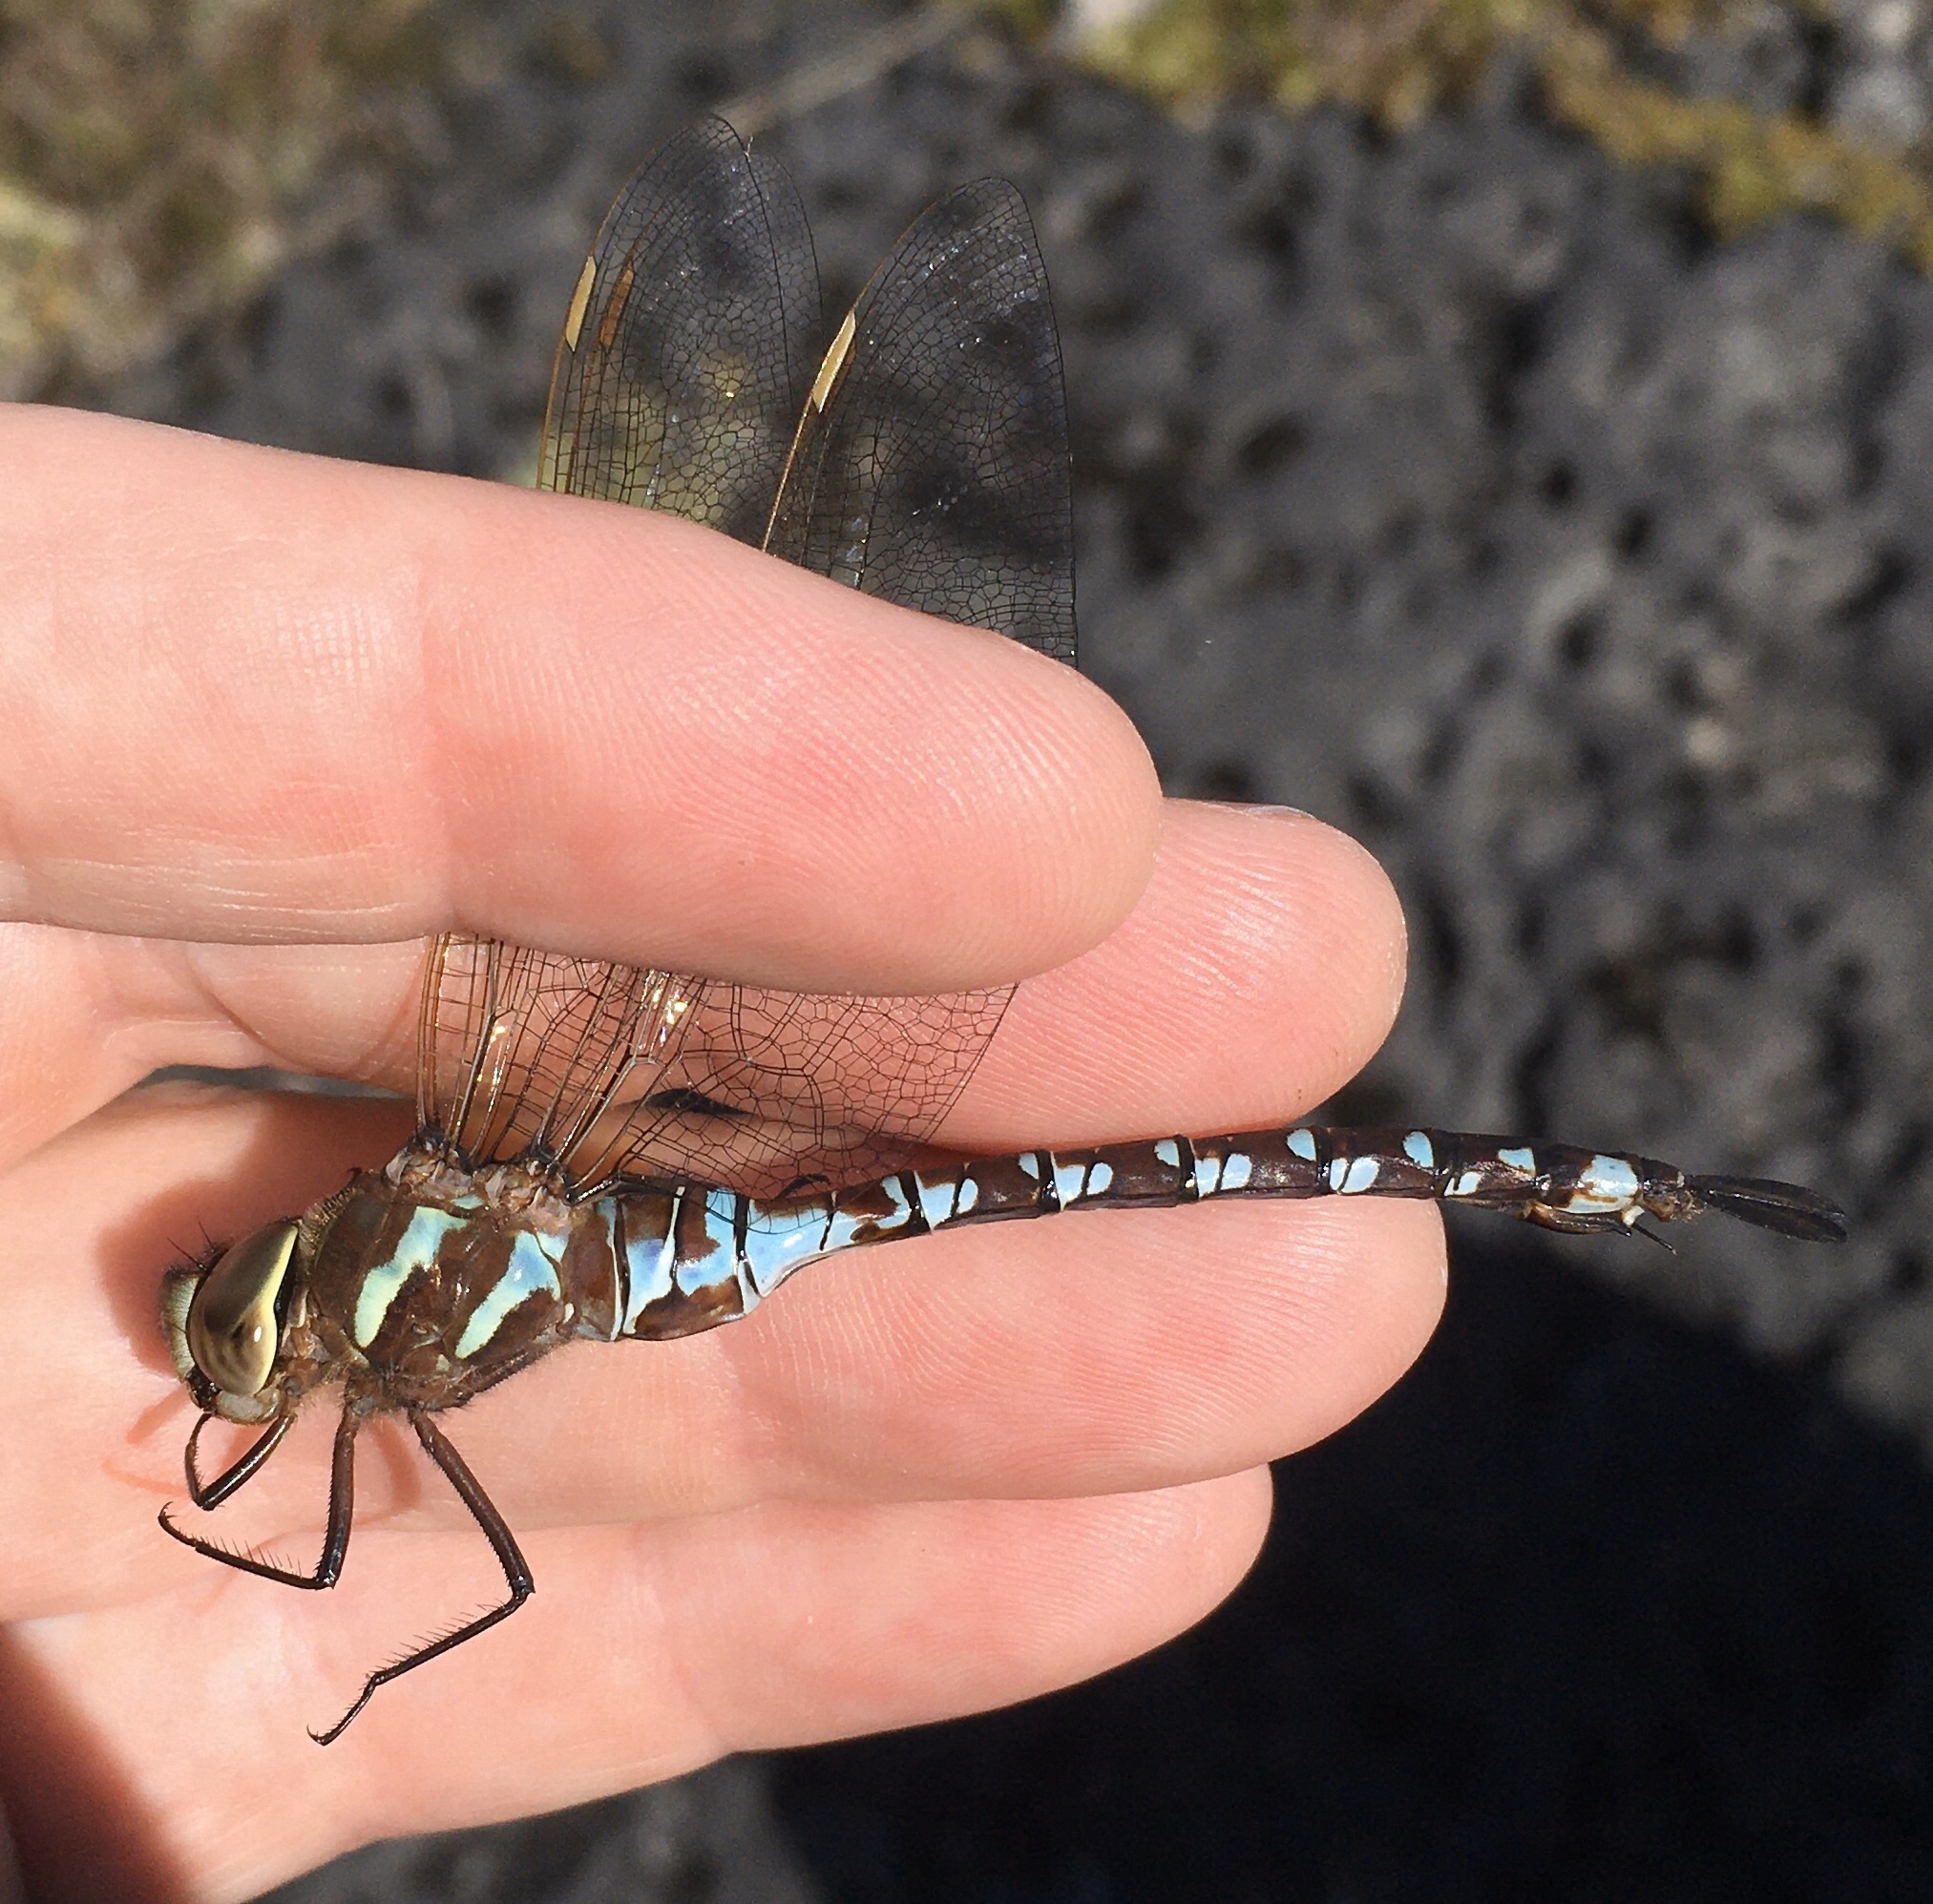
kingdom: Animalia
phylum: Arthropoda
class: Insecta
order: Odonata
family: Aeshnidae
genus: Aeshna
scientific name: Aeshna constricta
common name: Lance-tipped darner
